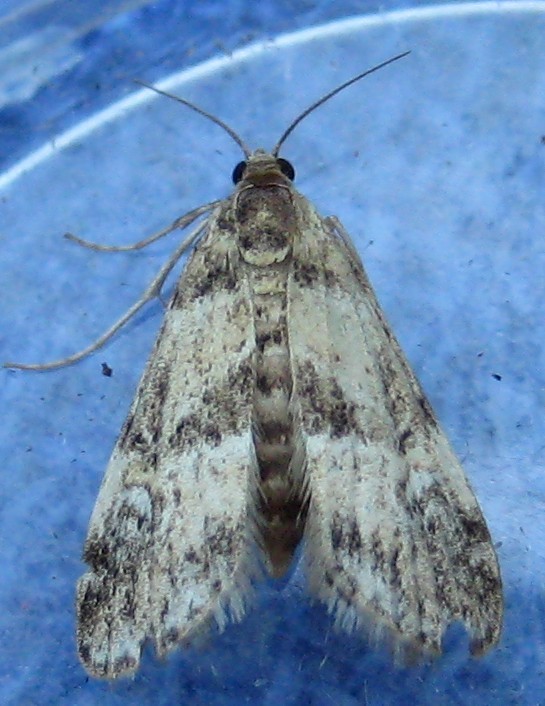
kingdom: Animalia
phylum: Arthropoda
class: Insecta
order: Lepidoptera
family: Crambidae
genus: Elophila
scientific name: Elophila obliteralis
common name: Waterlily leafcutter moth
